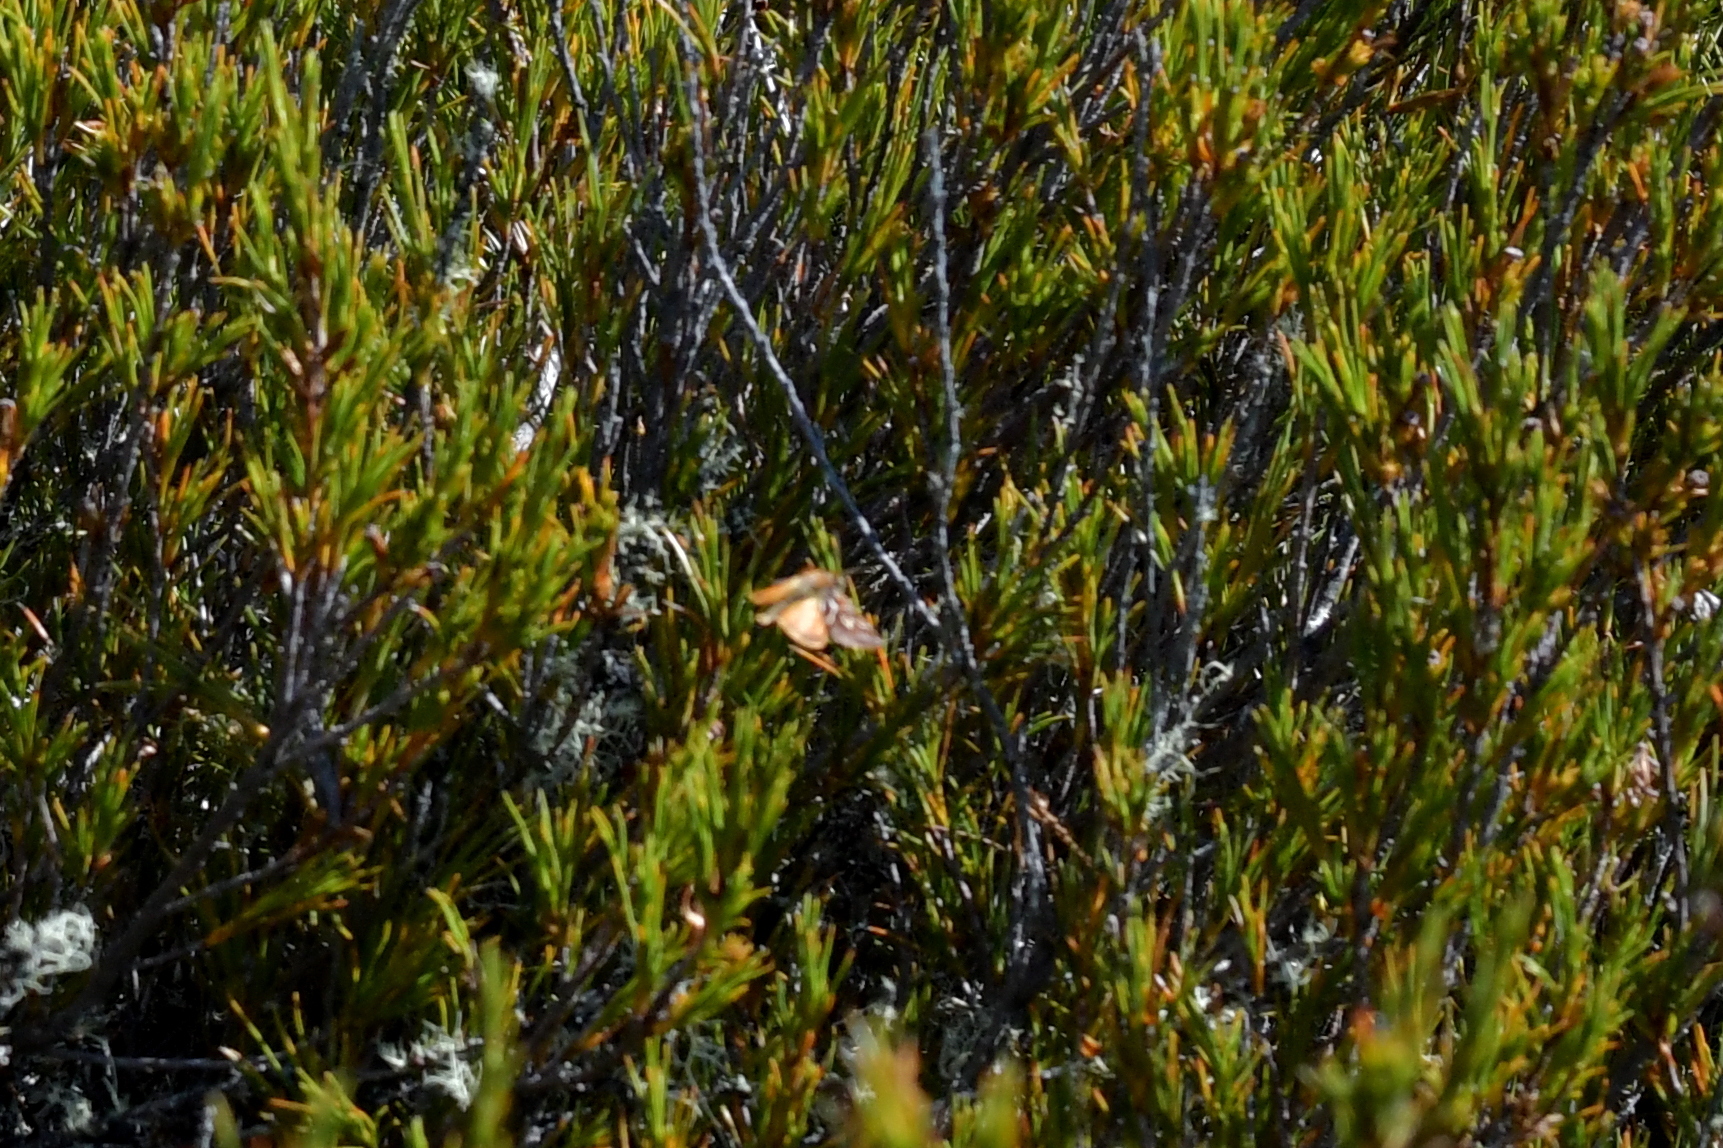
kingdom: Animalia
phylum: Arthropoda
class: Insecta
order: Lepidoptera
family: Geometridae
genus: Declana
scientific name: Declana
